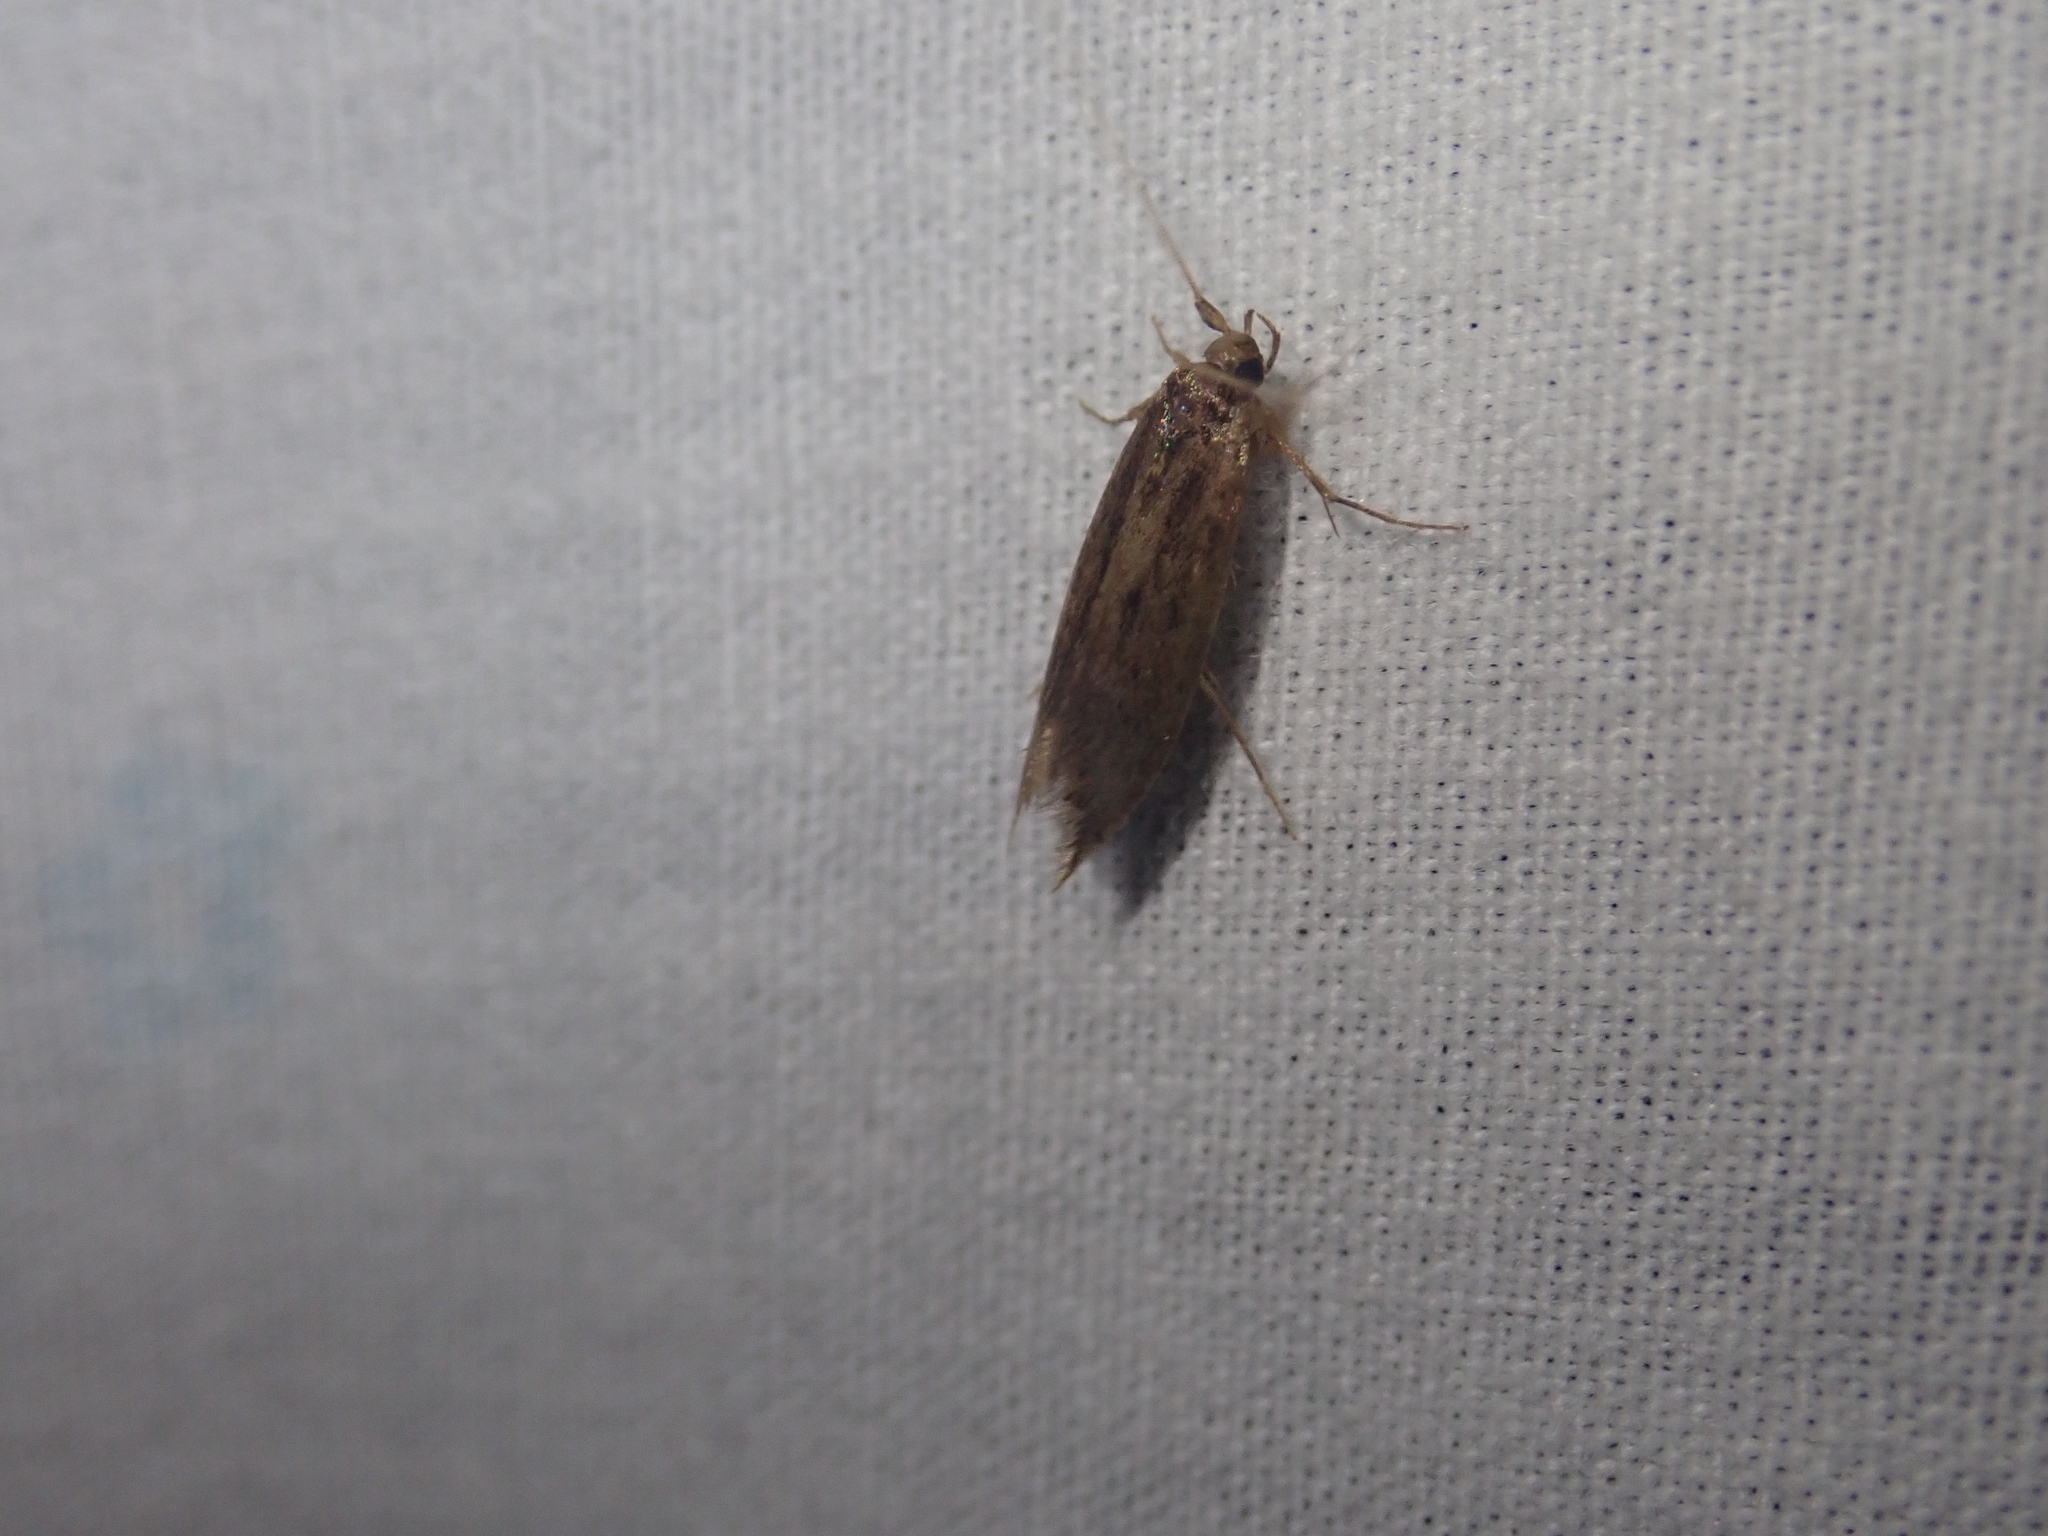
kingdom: Animalia
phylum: Arthropoda
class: Insecta
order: Lepidoptera
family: Tineidae
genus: Opogona
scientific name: Opogona omoscopa
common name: Moth
